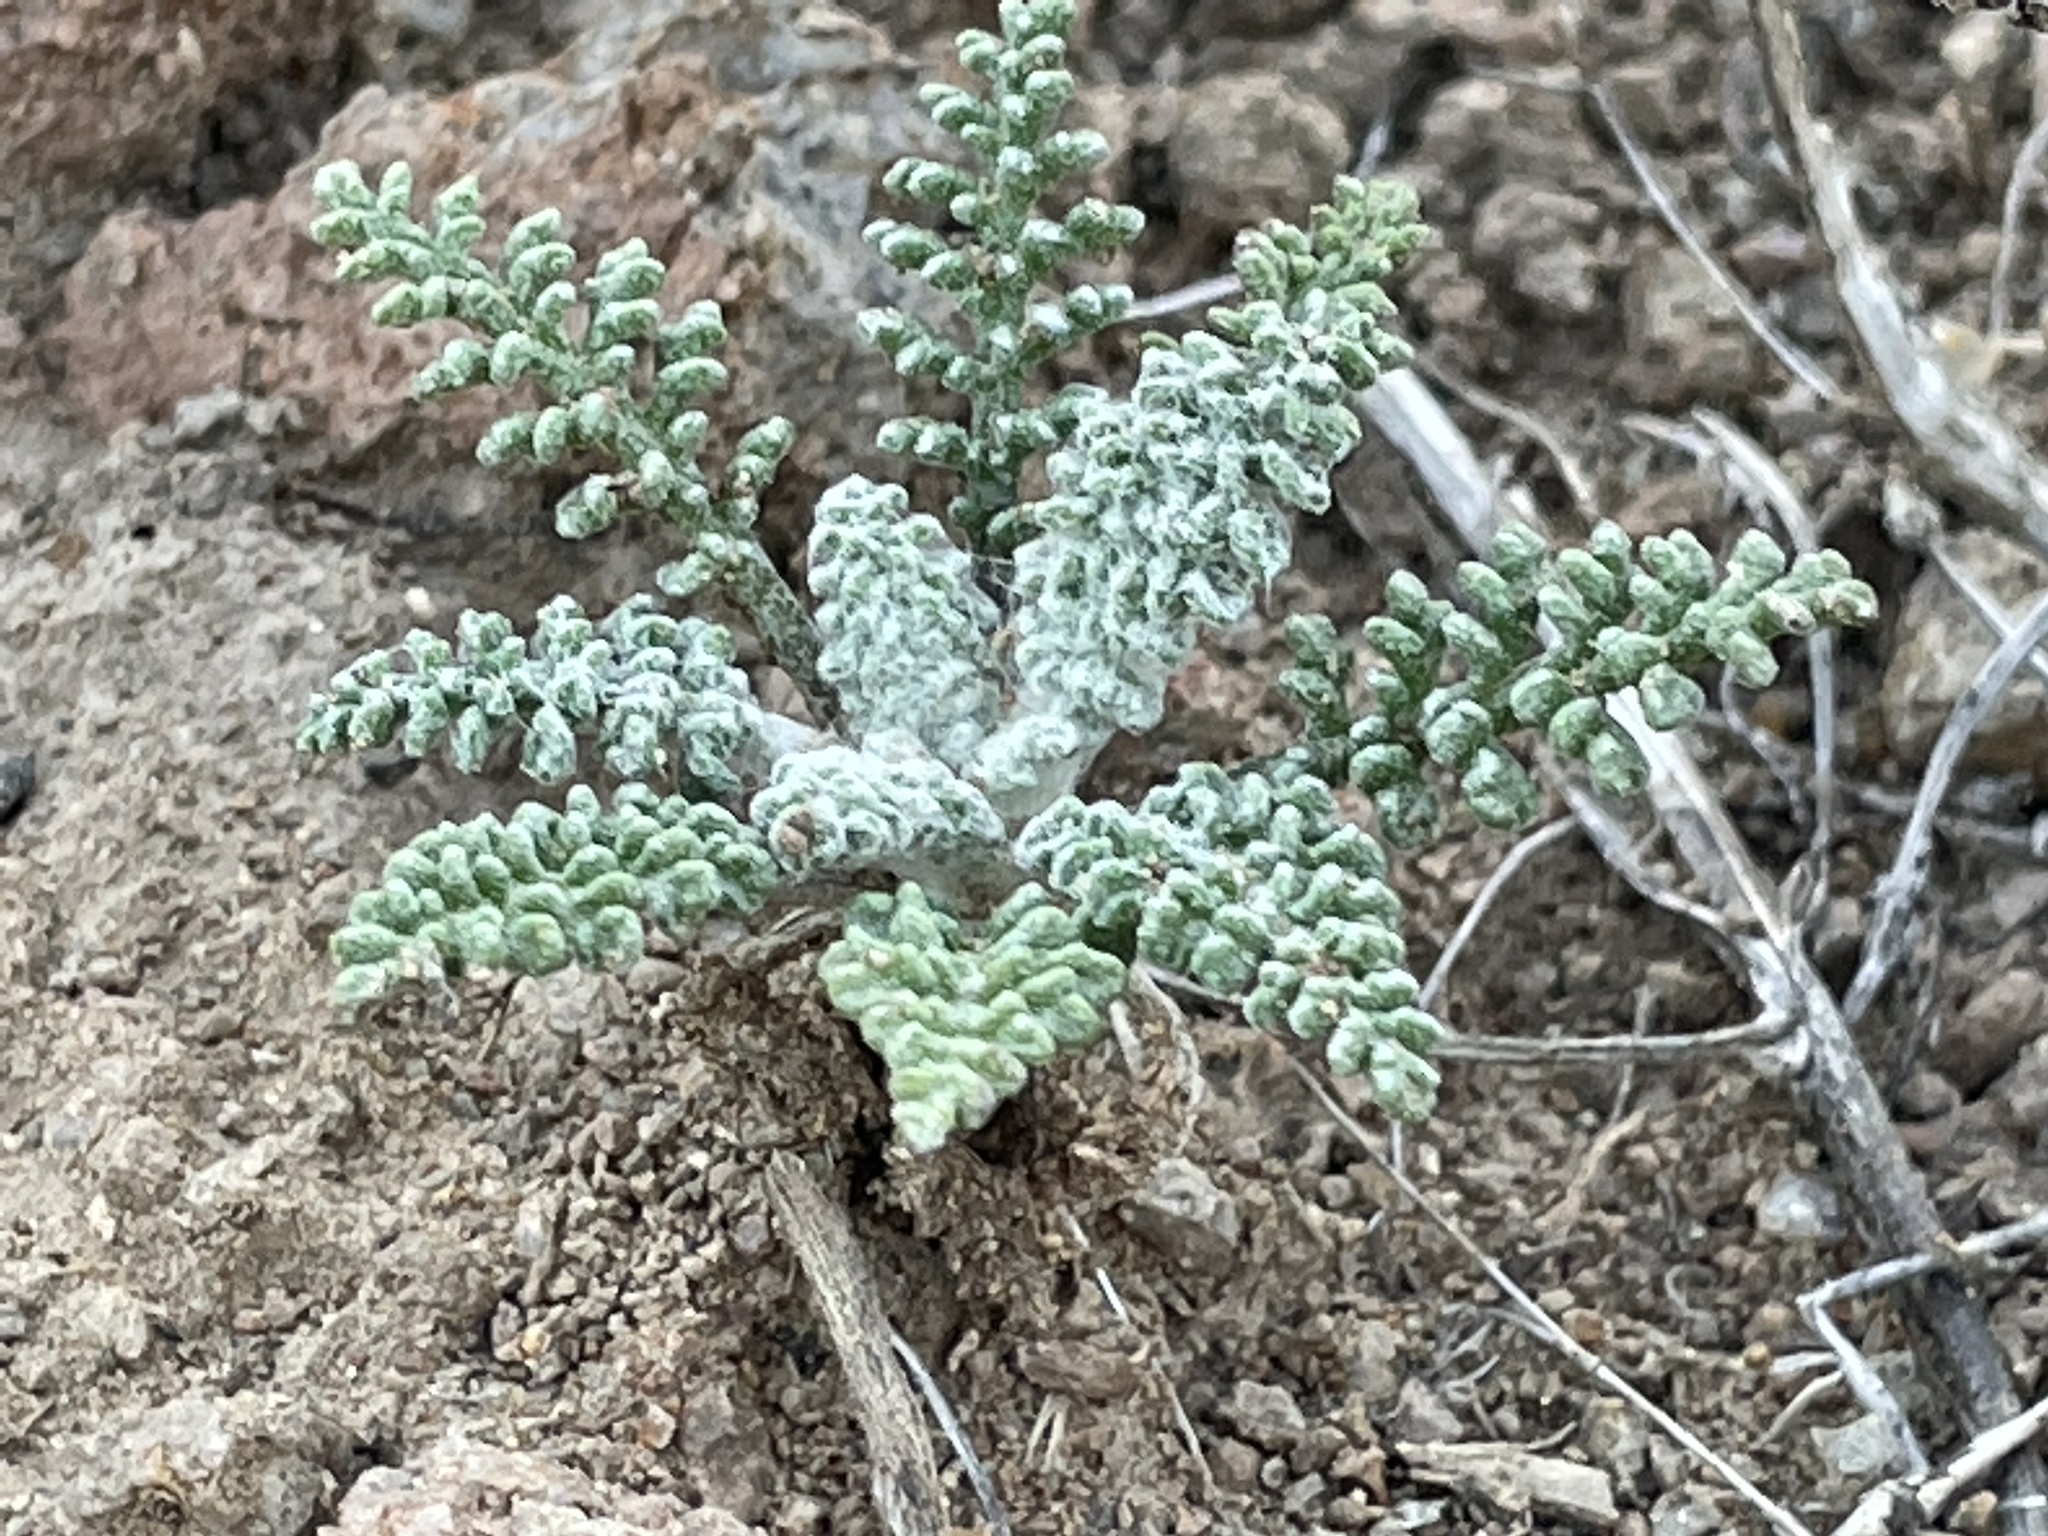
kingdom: Plantae
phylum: Tracheophyta
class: Magnoliopsida
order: Asterales
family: Asteraceae
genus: Chaenactis
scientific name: Chaenactis douglasii
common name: Hoary pincushion
